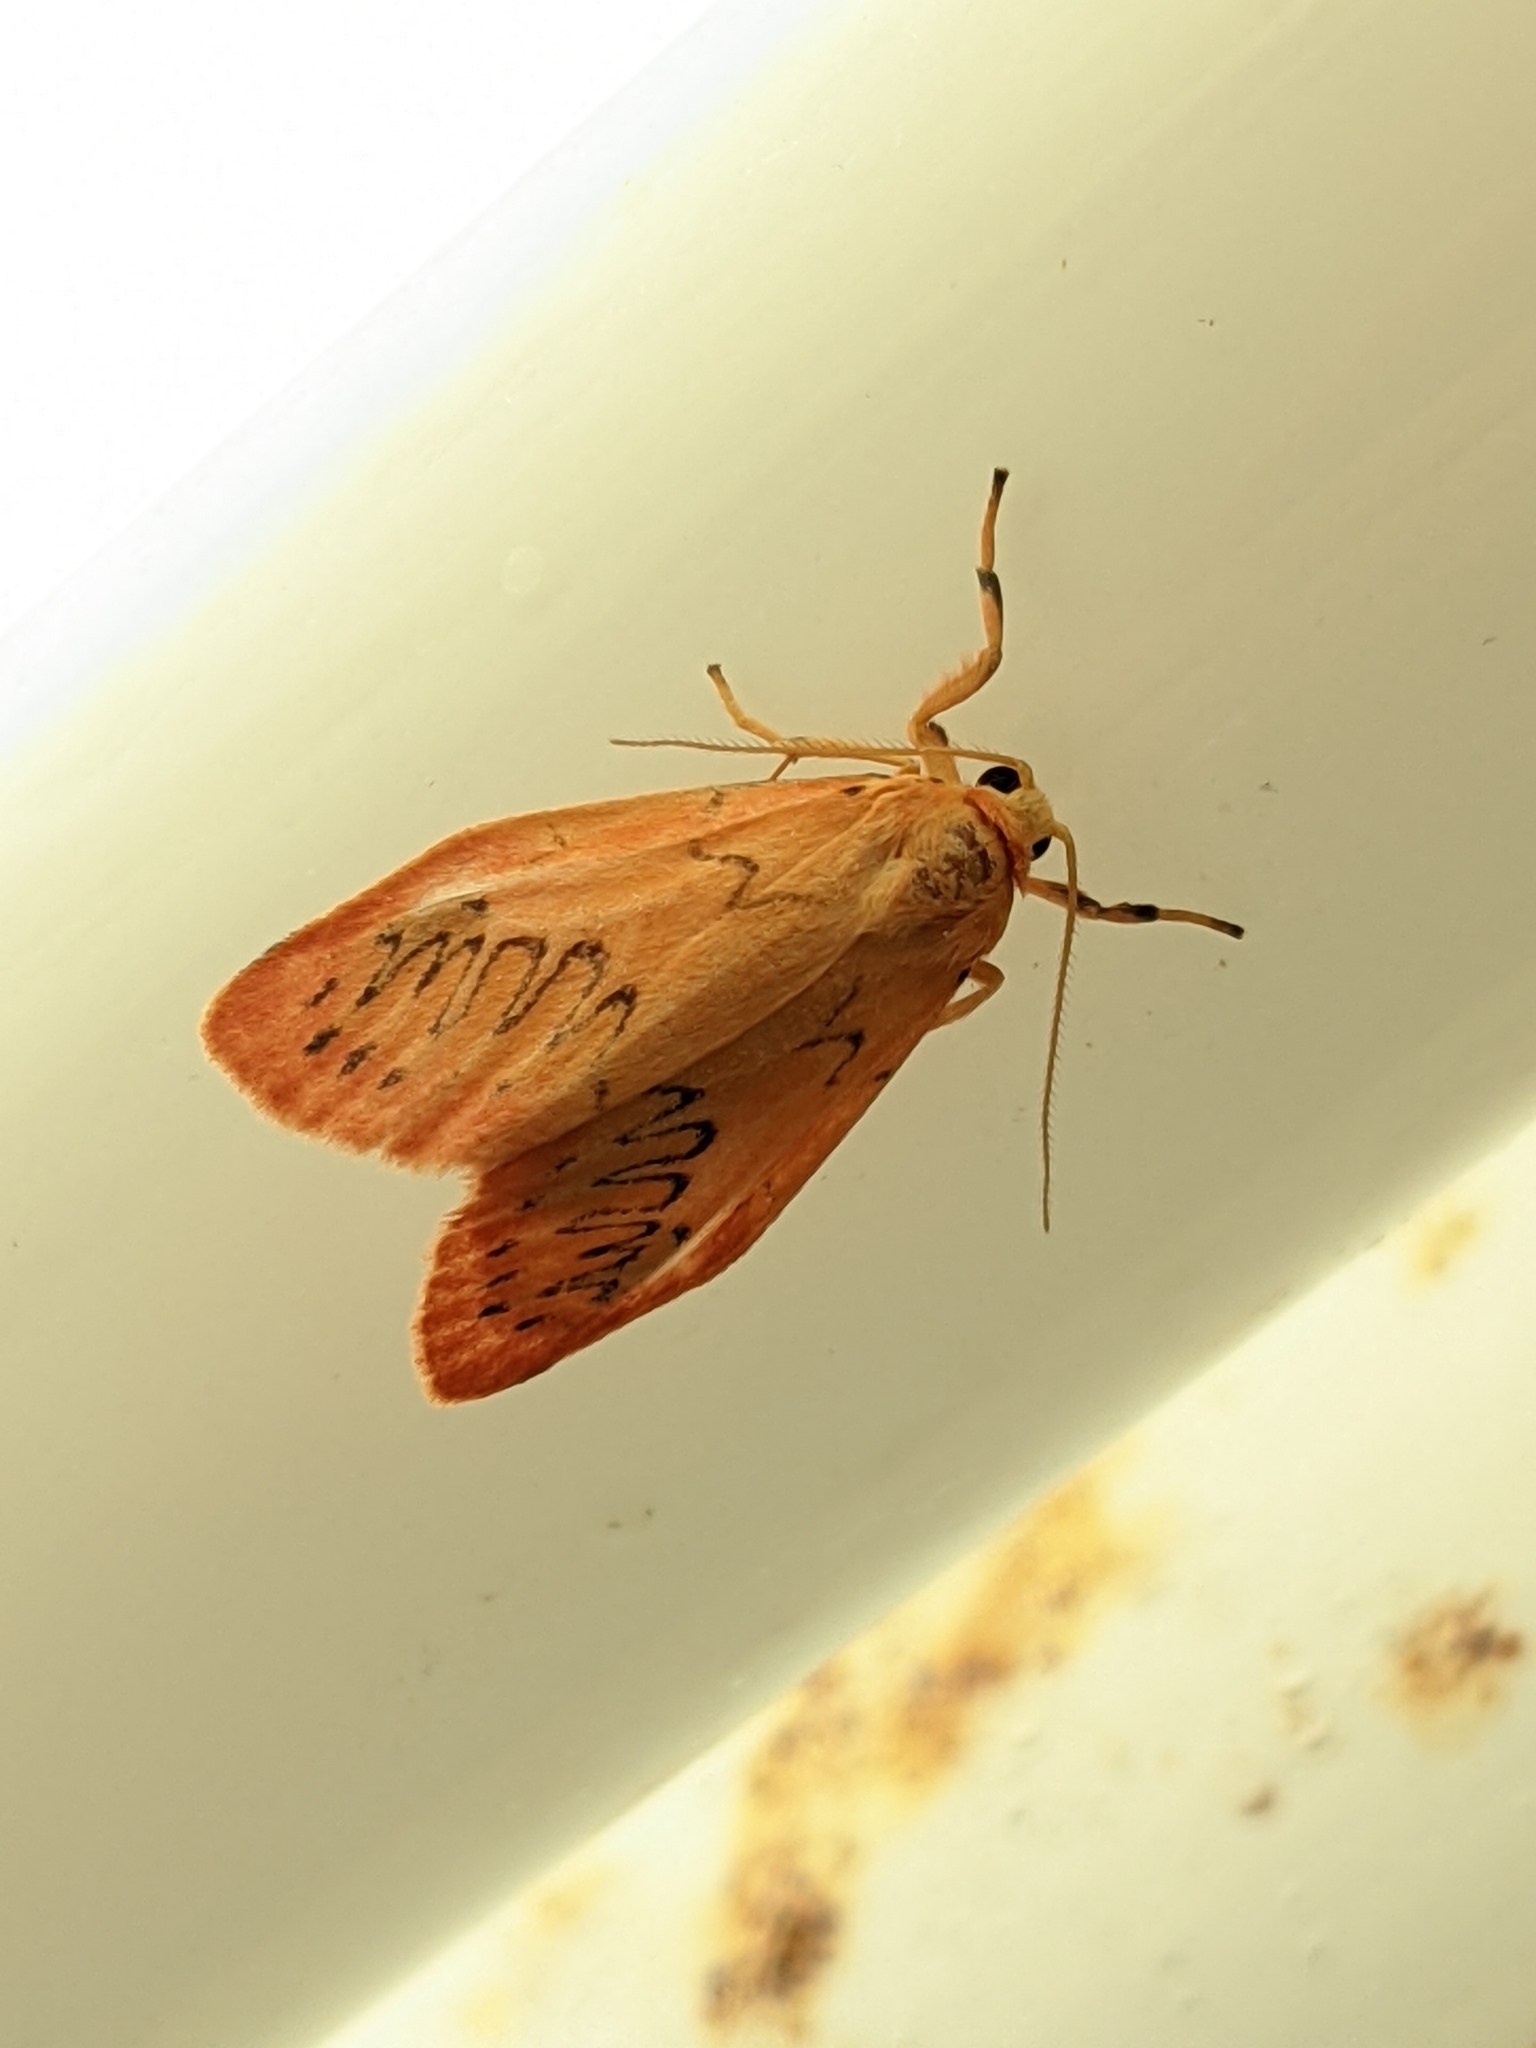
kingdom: Animalia
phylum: Arthropoda
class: Insecta
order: Lepidoptera
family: Erebidae
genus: Miltochrista
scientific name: Miltochrista miniata
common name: Rosy footman
